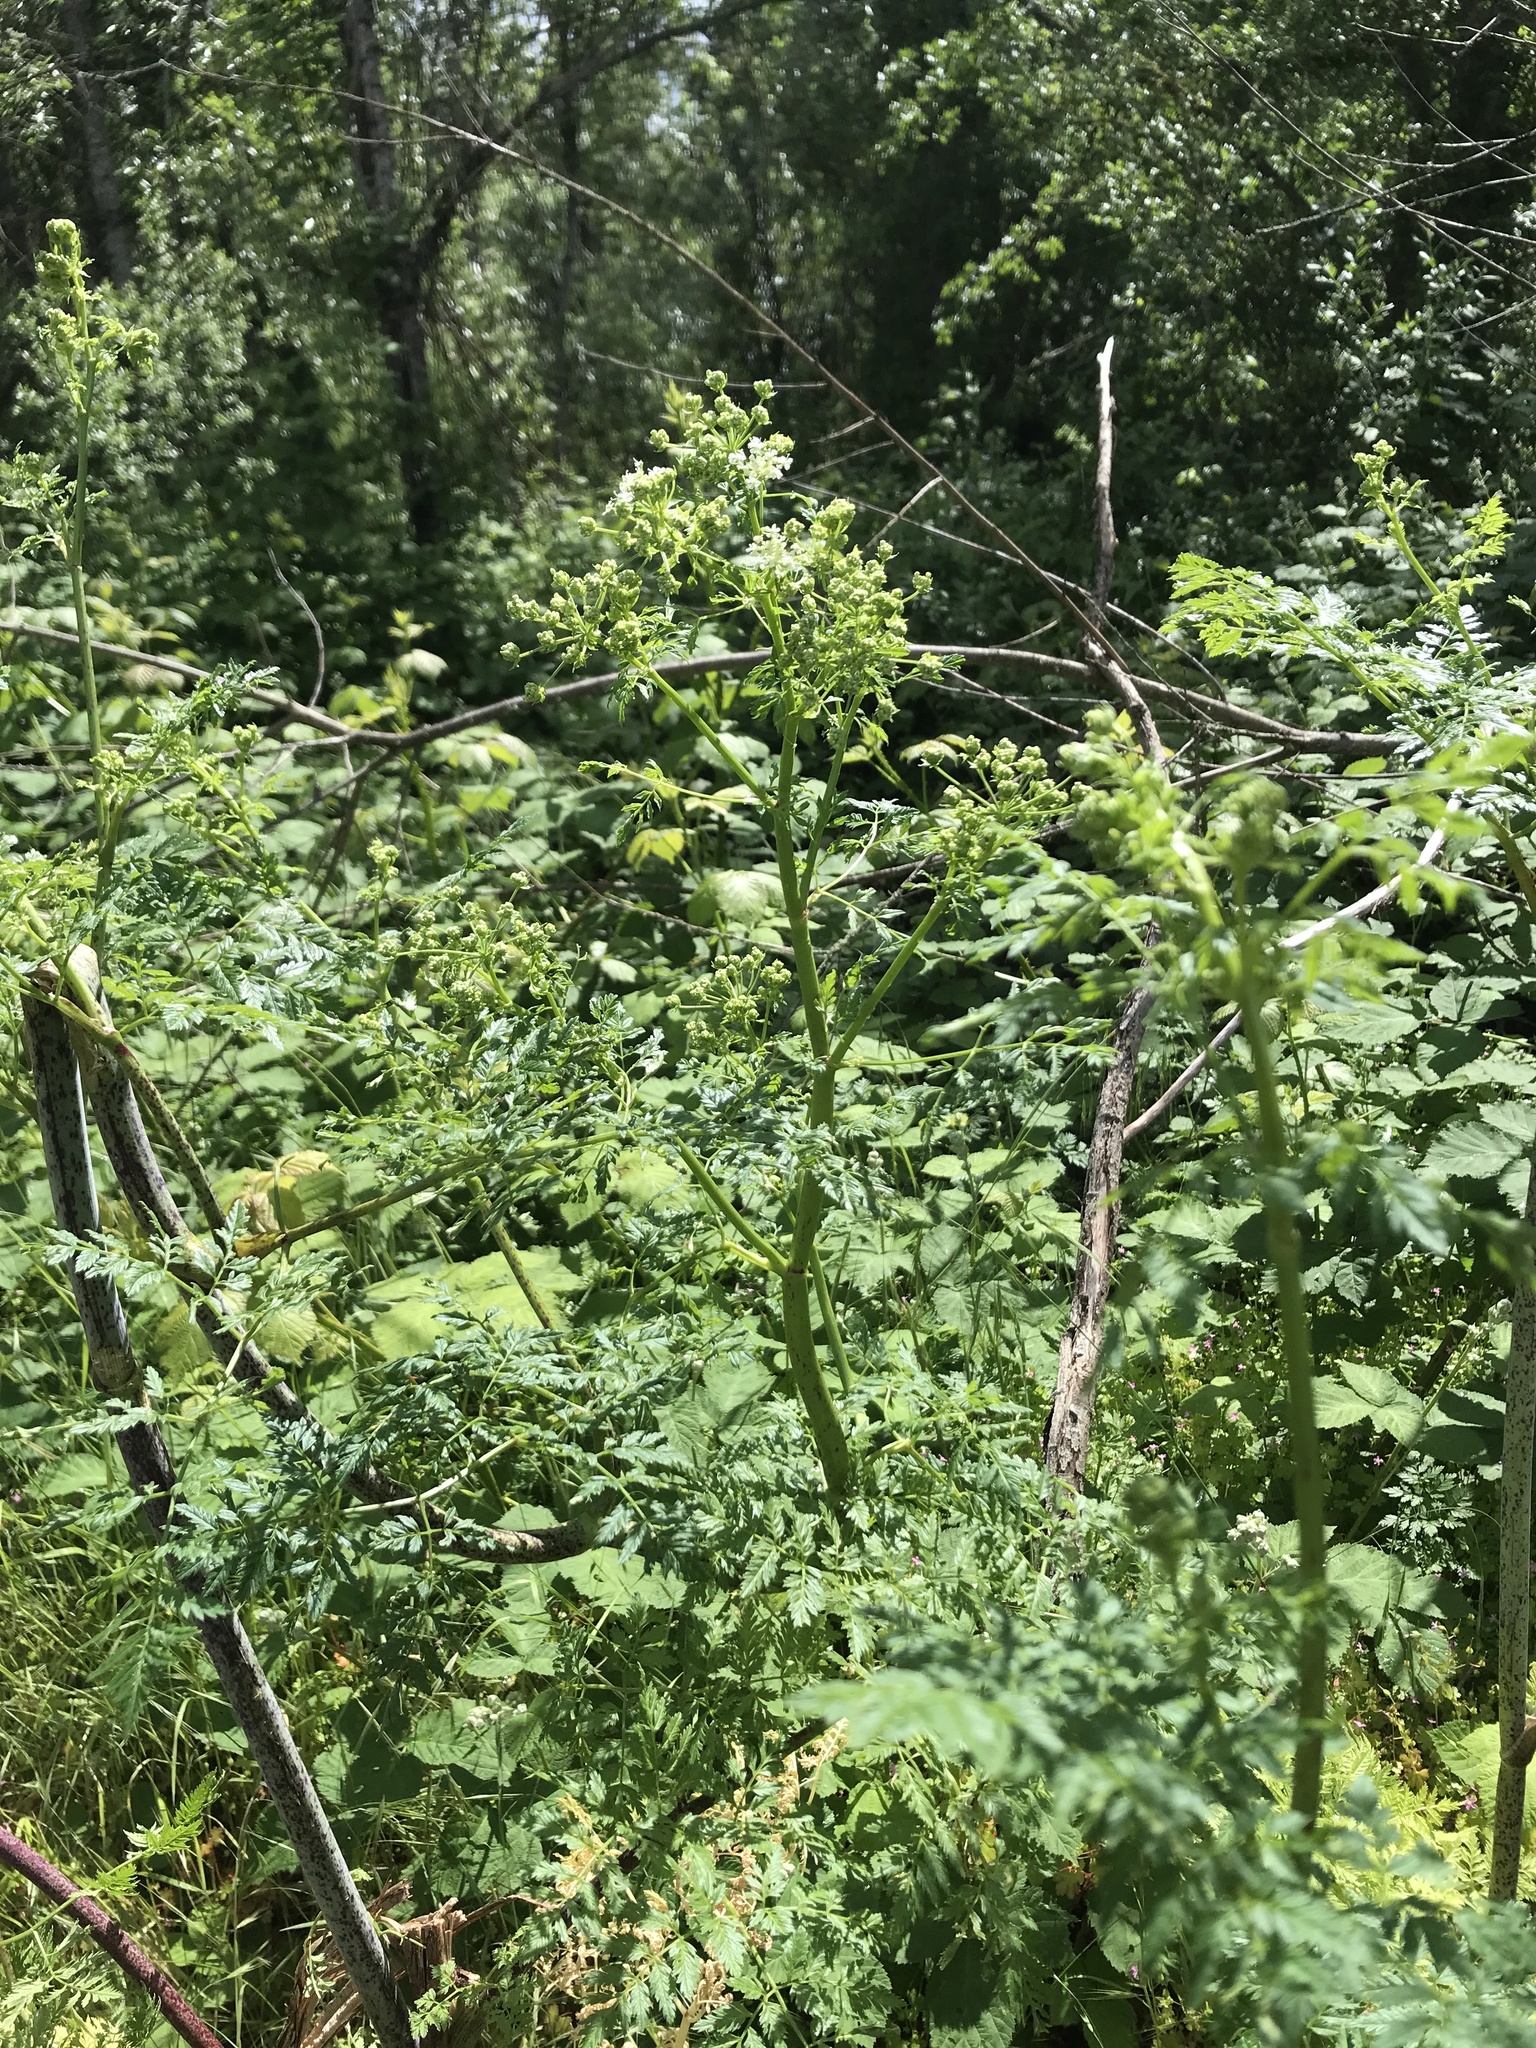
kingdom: Plantae
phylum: Tracheophyta
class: Magnoliopsida
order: Apiales
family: Apiaceae
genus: Conium
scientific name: Conium maculatum
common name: Hemlock
